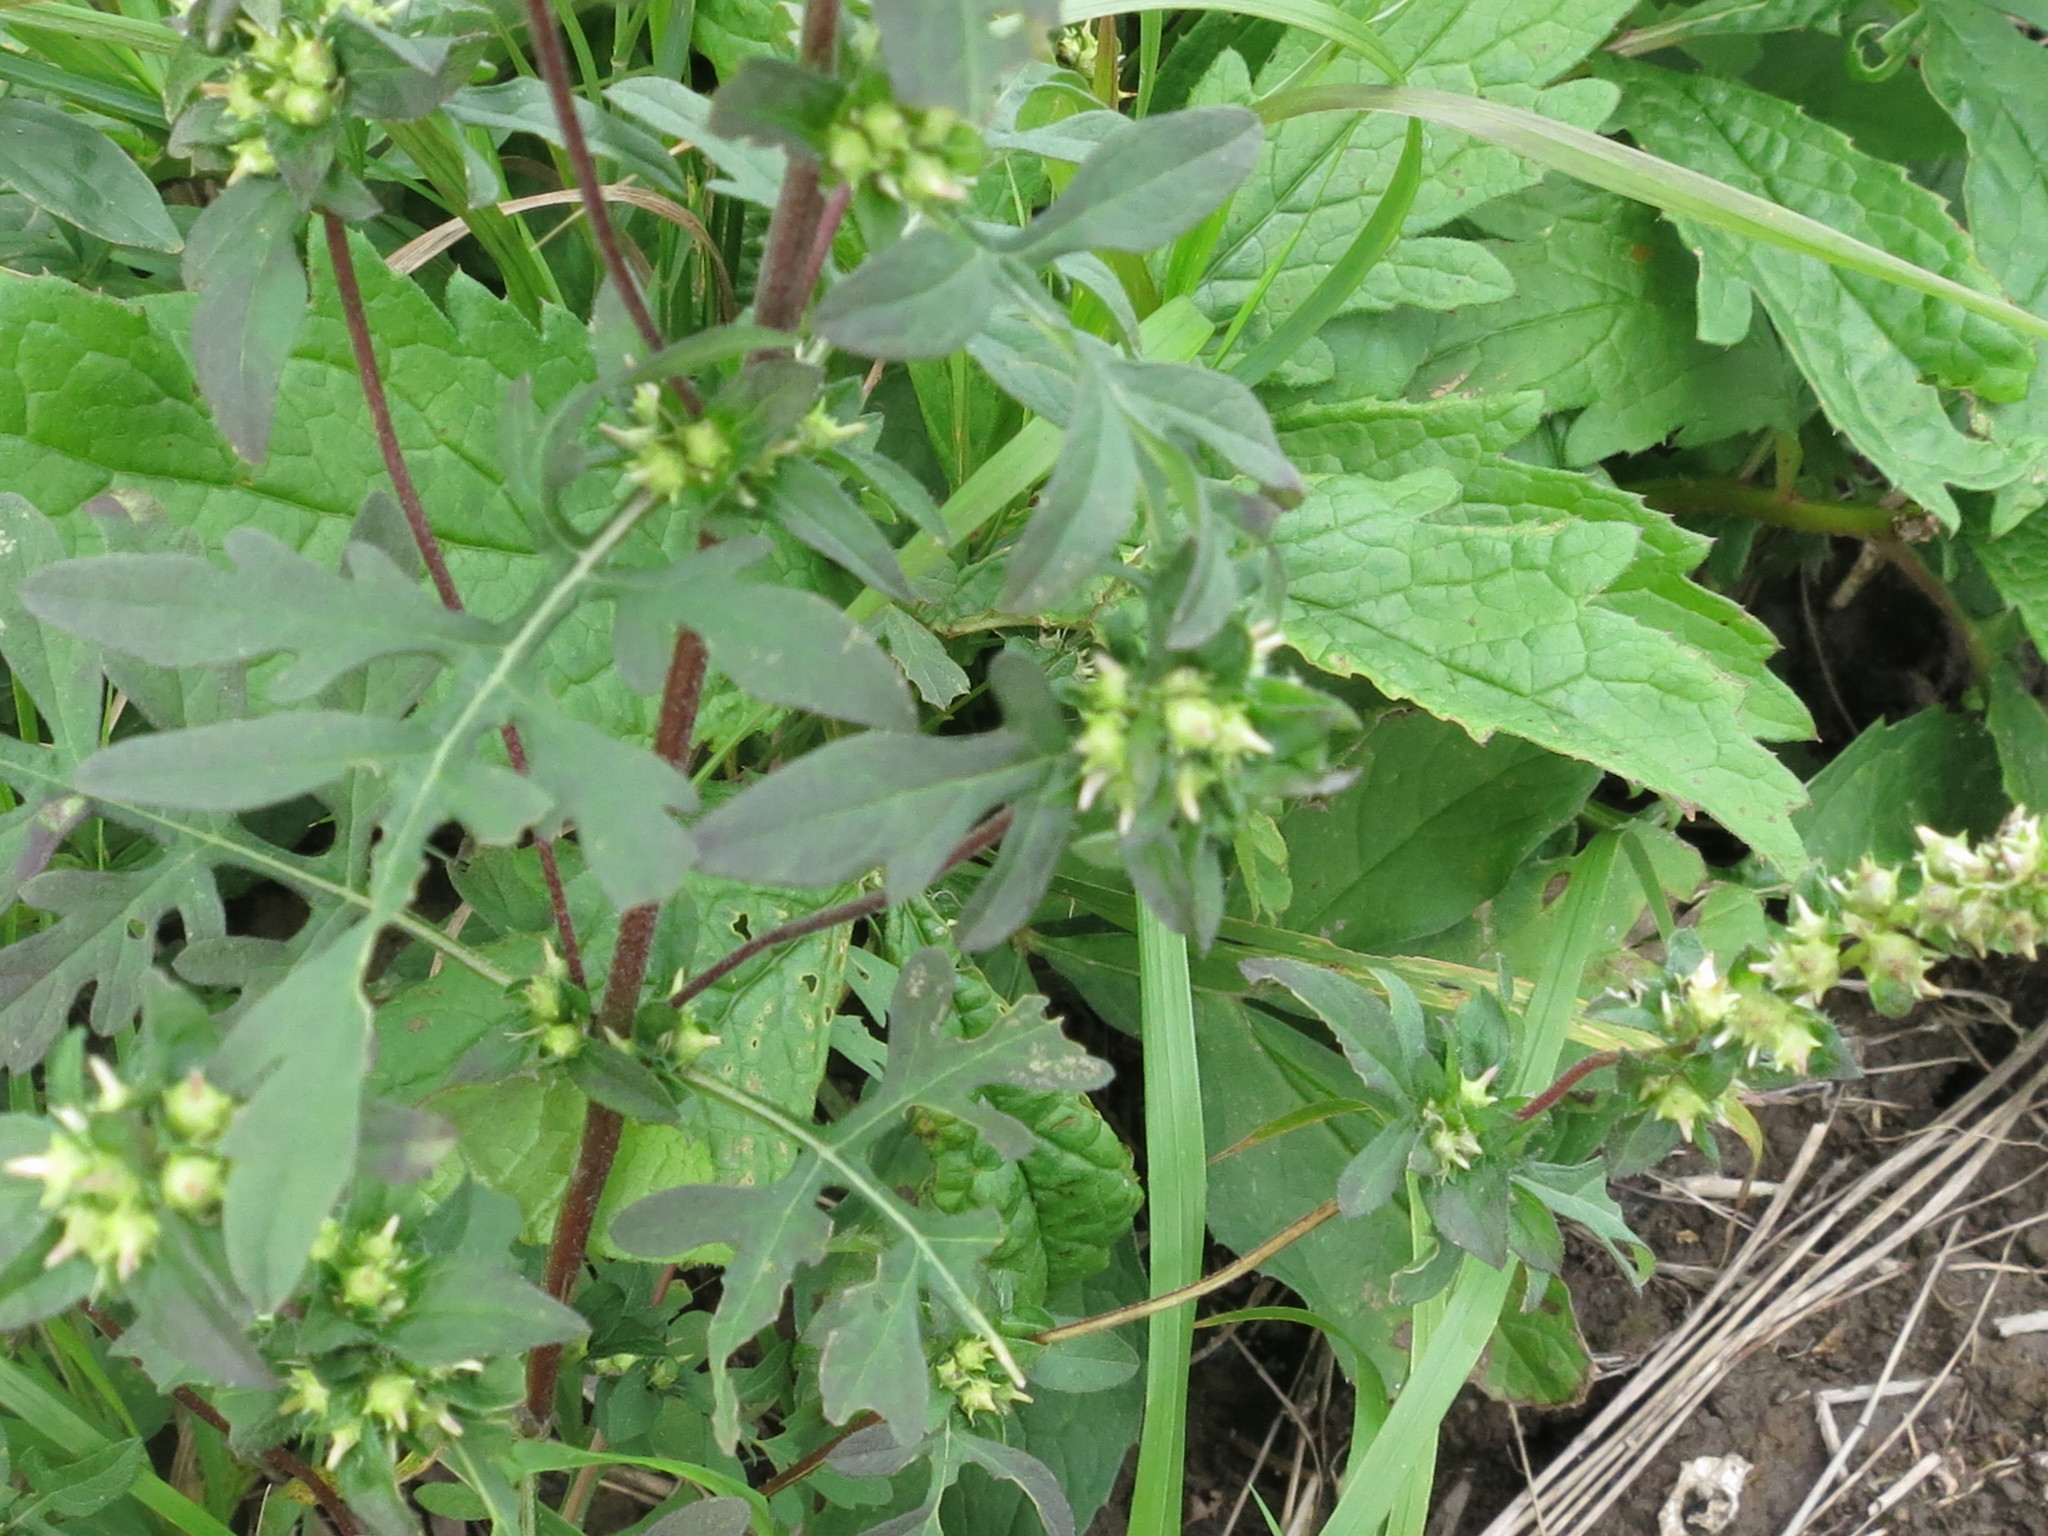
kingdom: Plantae
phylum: Tracheophyta
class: Magnoliopsida
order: Asterales
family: Asteraceae
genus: Ambrosia
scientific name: Ambrosia artemisiifolia
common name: Annual ragweed
